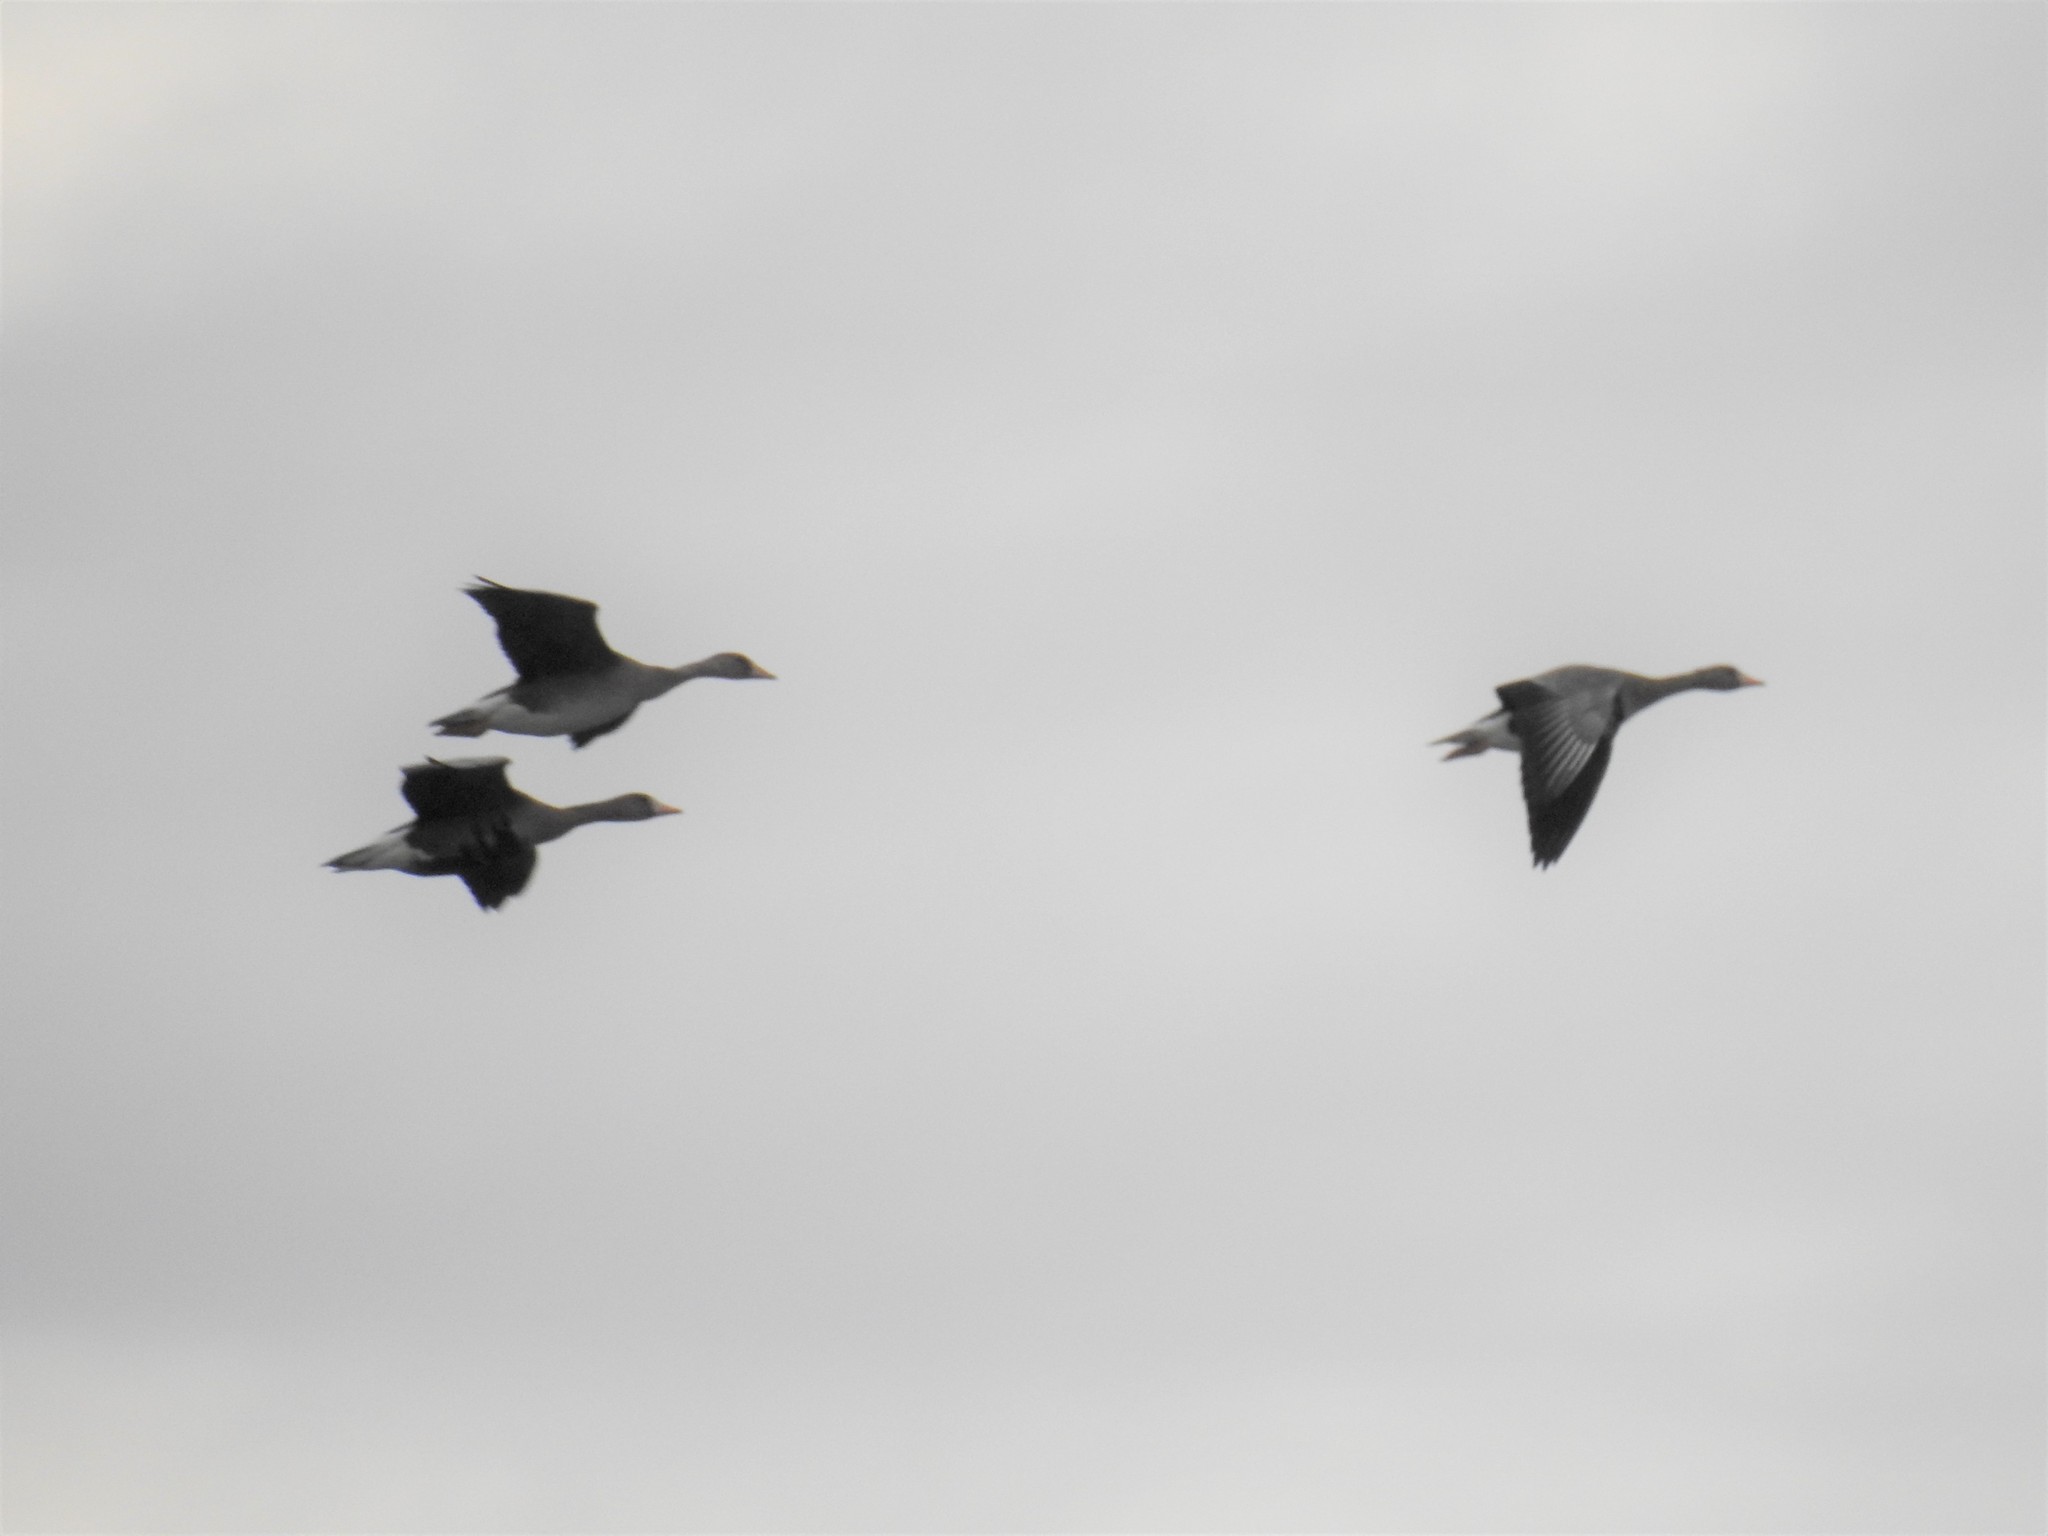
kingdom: Animalia
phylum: Chordata
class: Aves
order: Anseriformes
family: Anatidae
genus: Anser
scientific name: Anser albifrons
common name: Greater white-fronted goose
